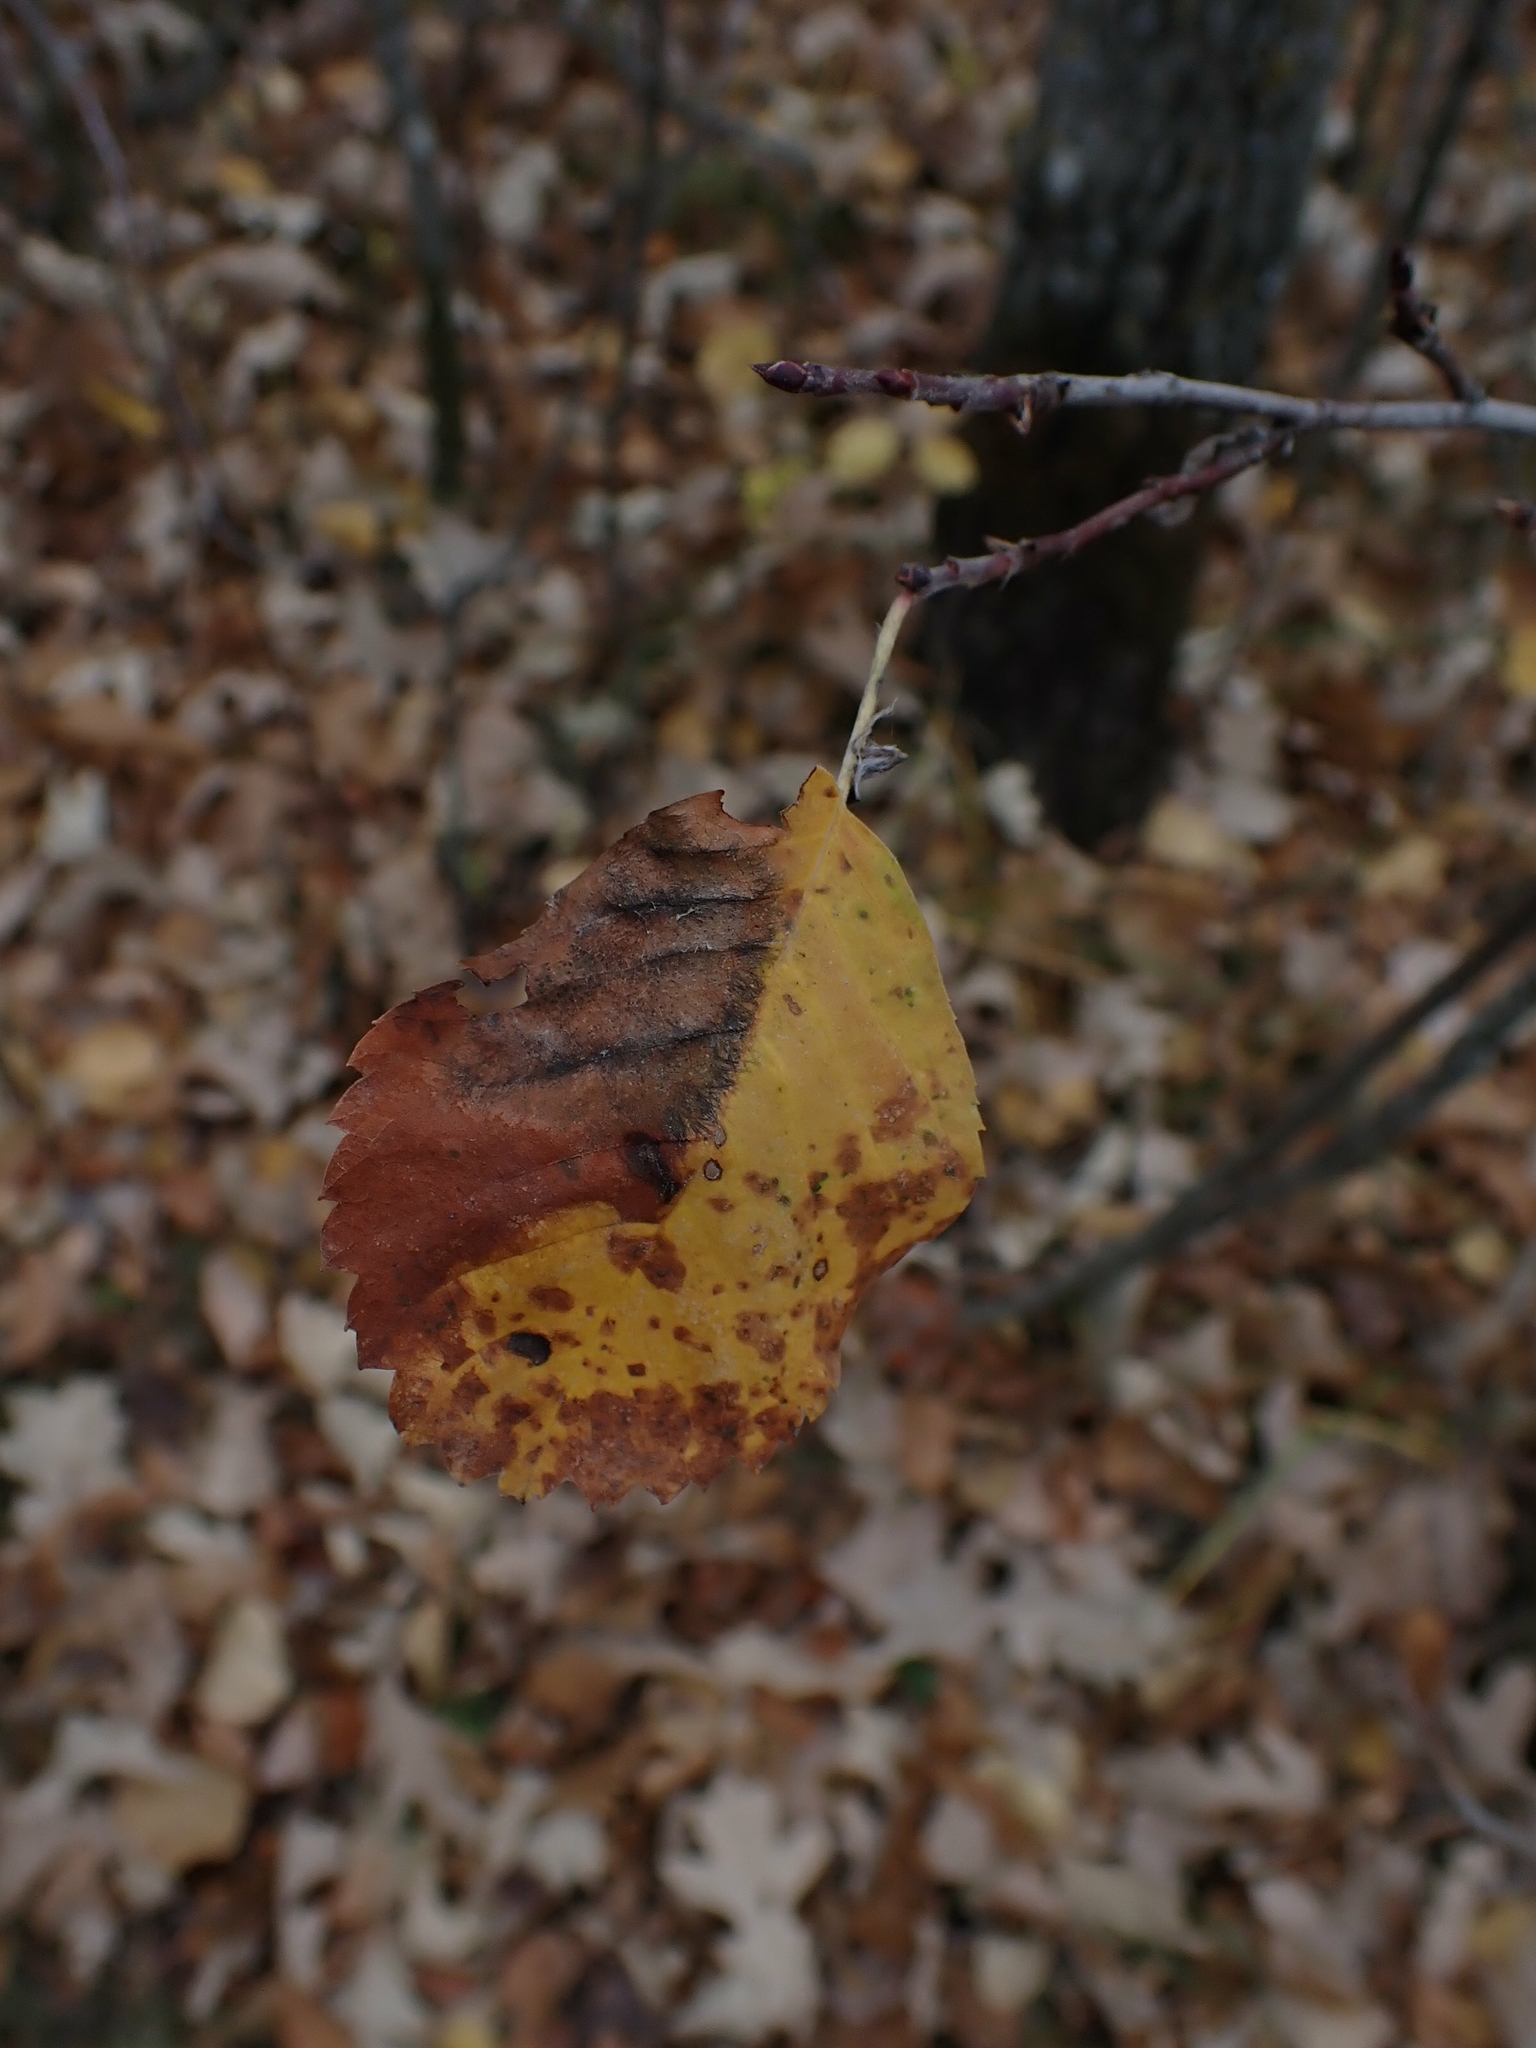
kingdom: Plantae
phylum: Tracheophyta
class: Magnoliopsida
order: Rosales
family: Rosaceae
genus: Amelanchier
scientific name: Amelanchier alnifolia
